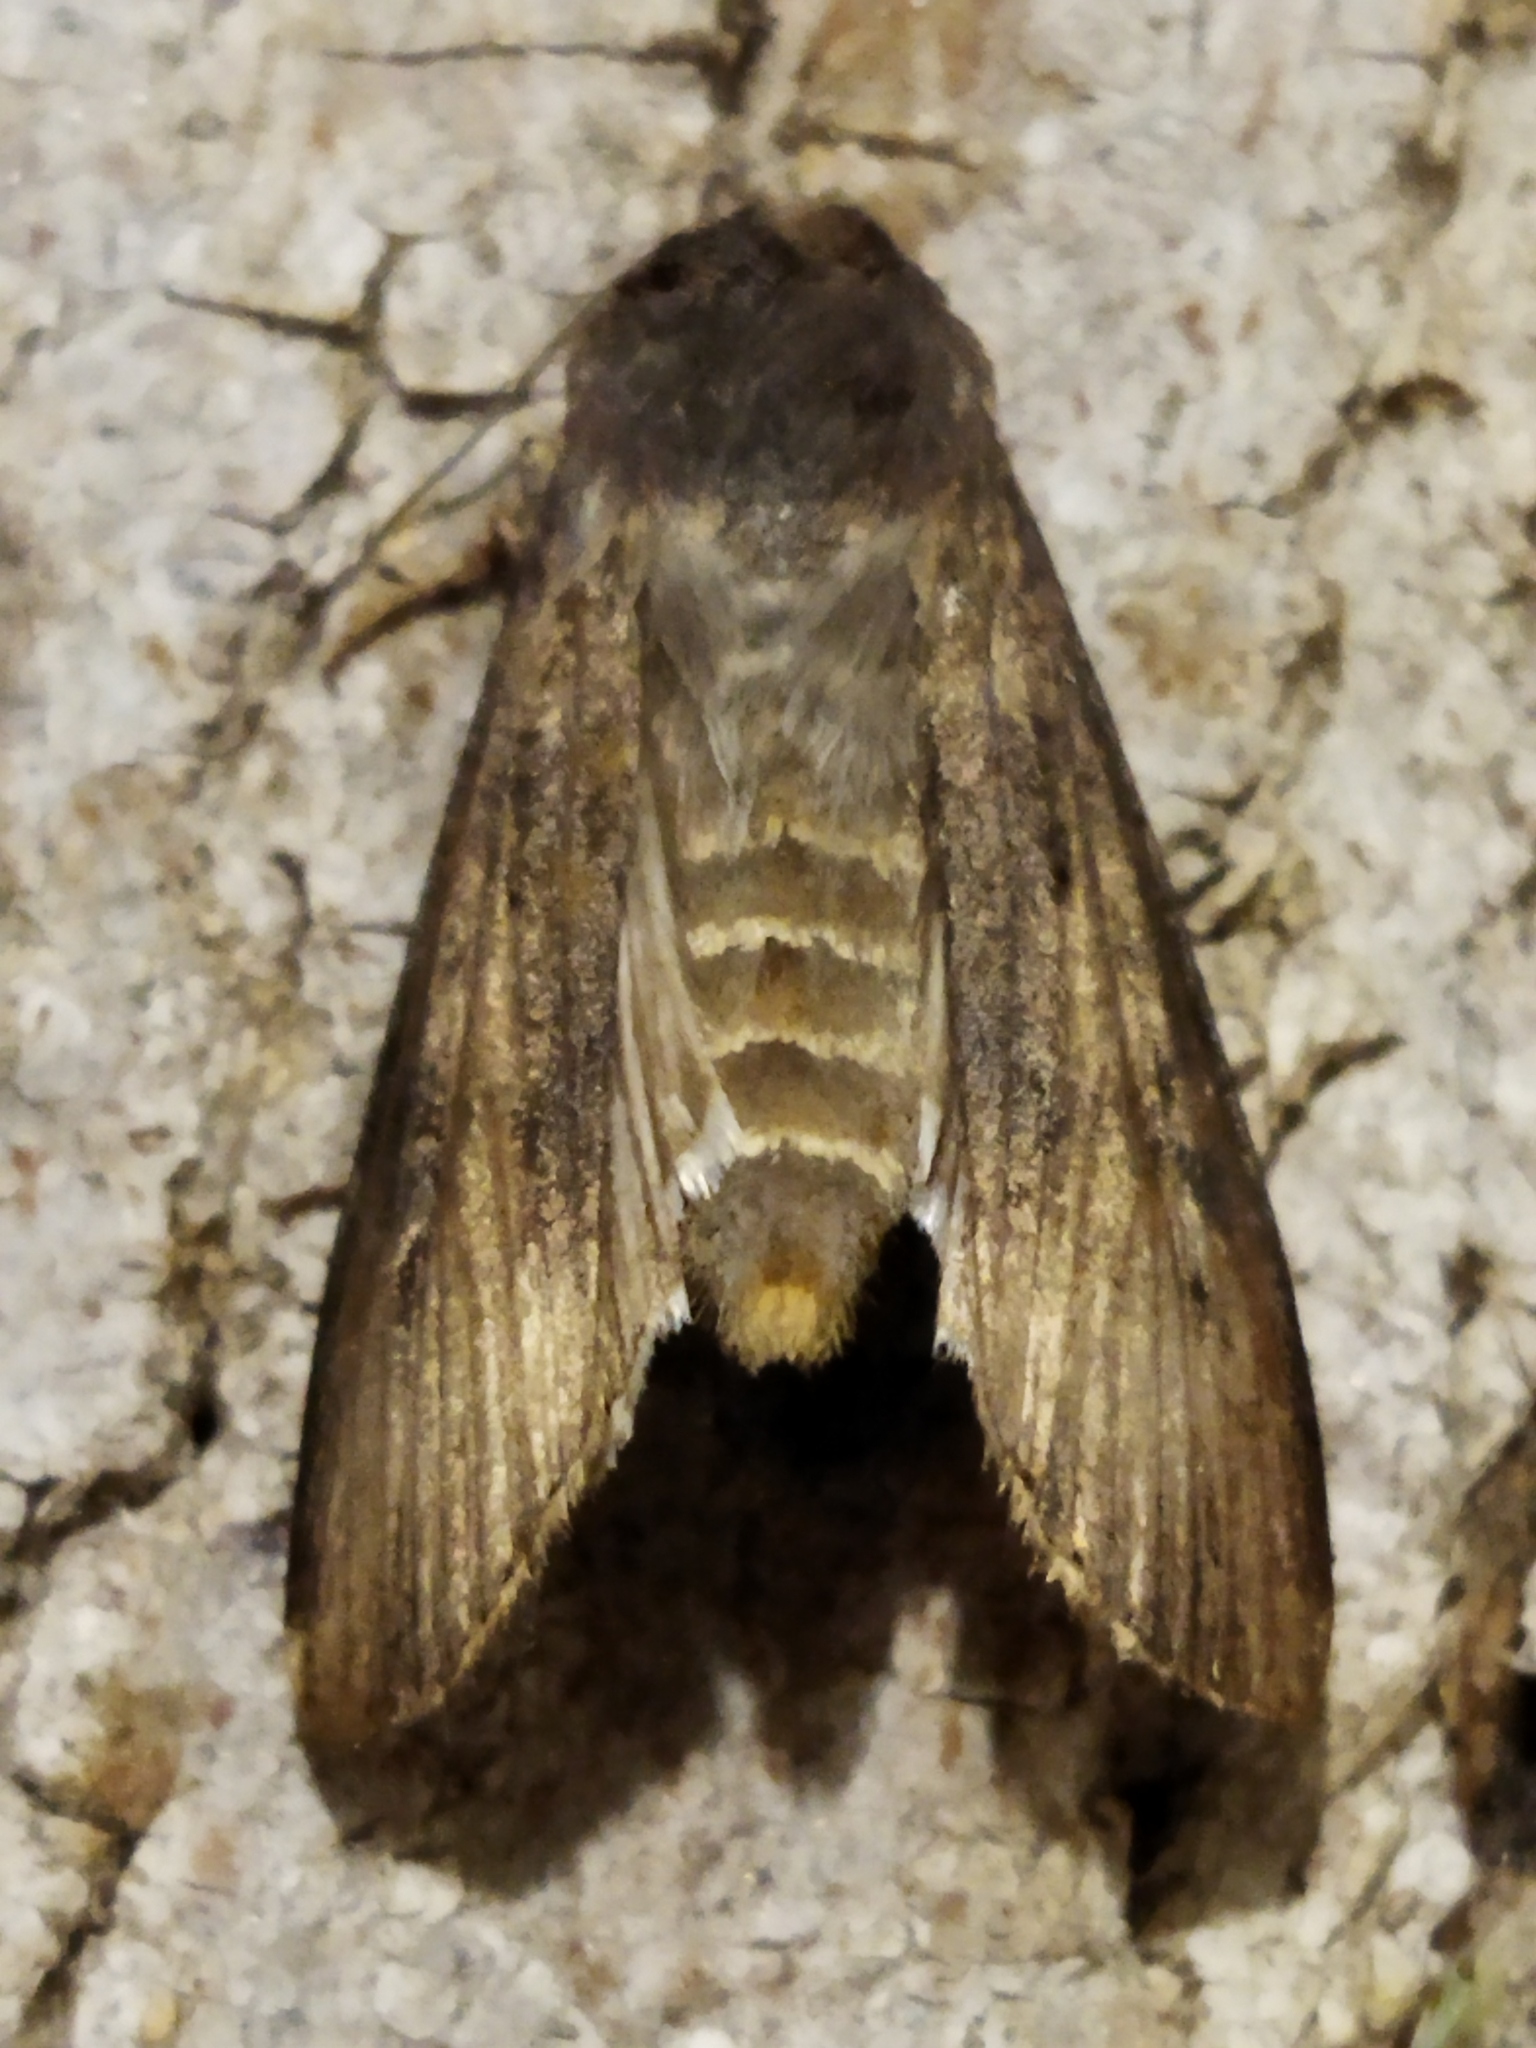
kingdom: Animalia
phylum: Arthropoda
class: Insecta
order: Lepidoptera
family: Noctuidae
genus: Agrotis
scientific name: Agrotis ipsilon
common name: Dark sword-grass
